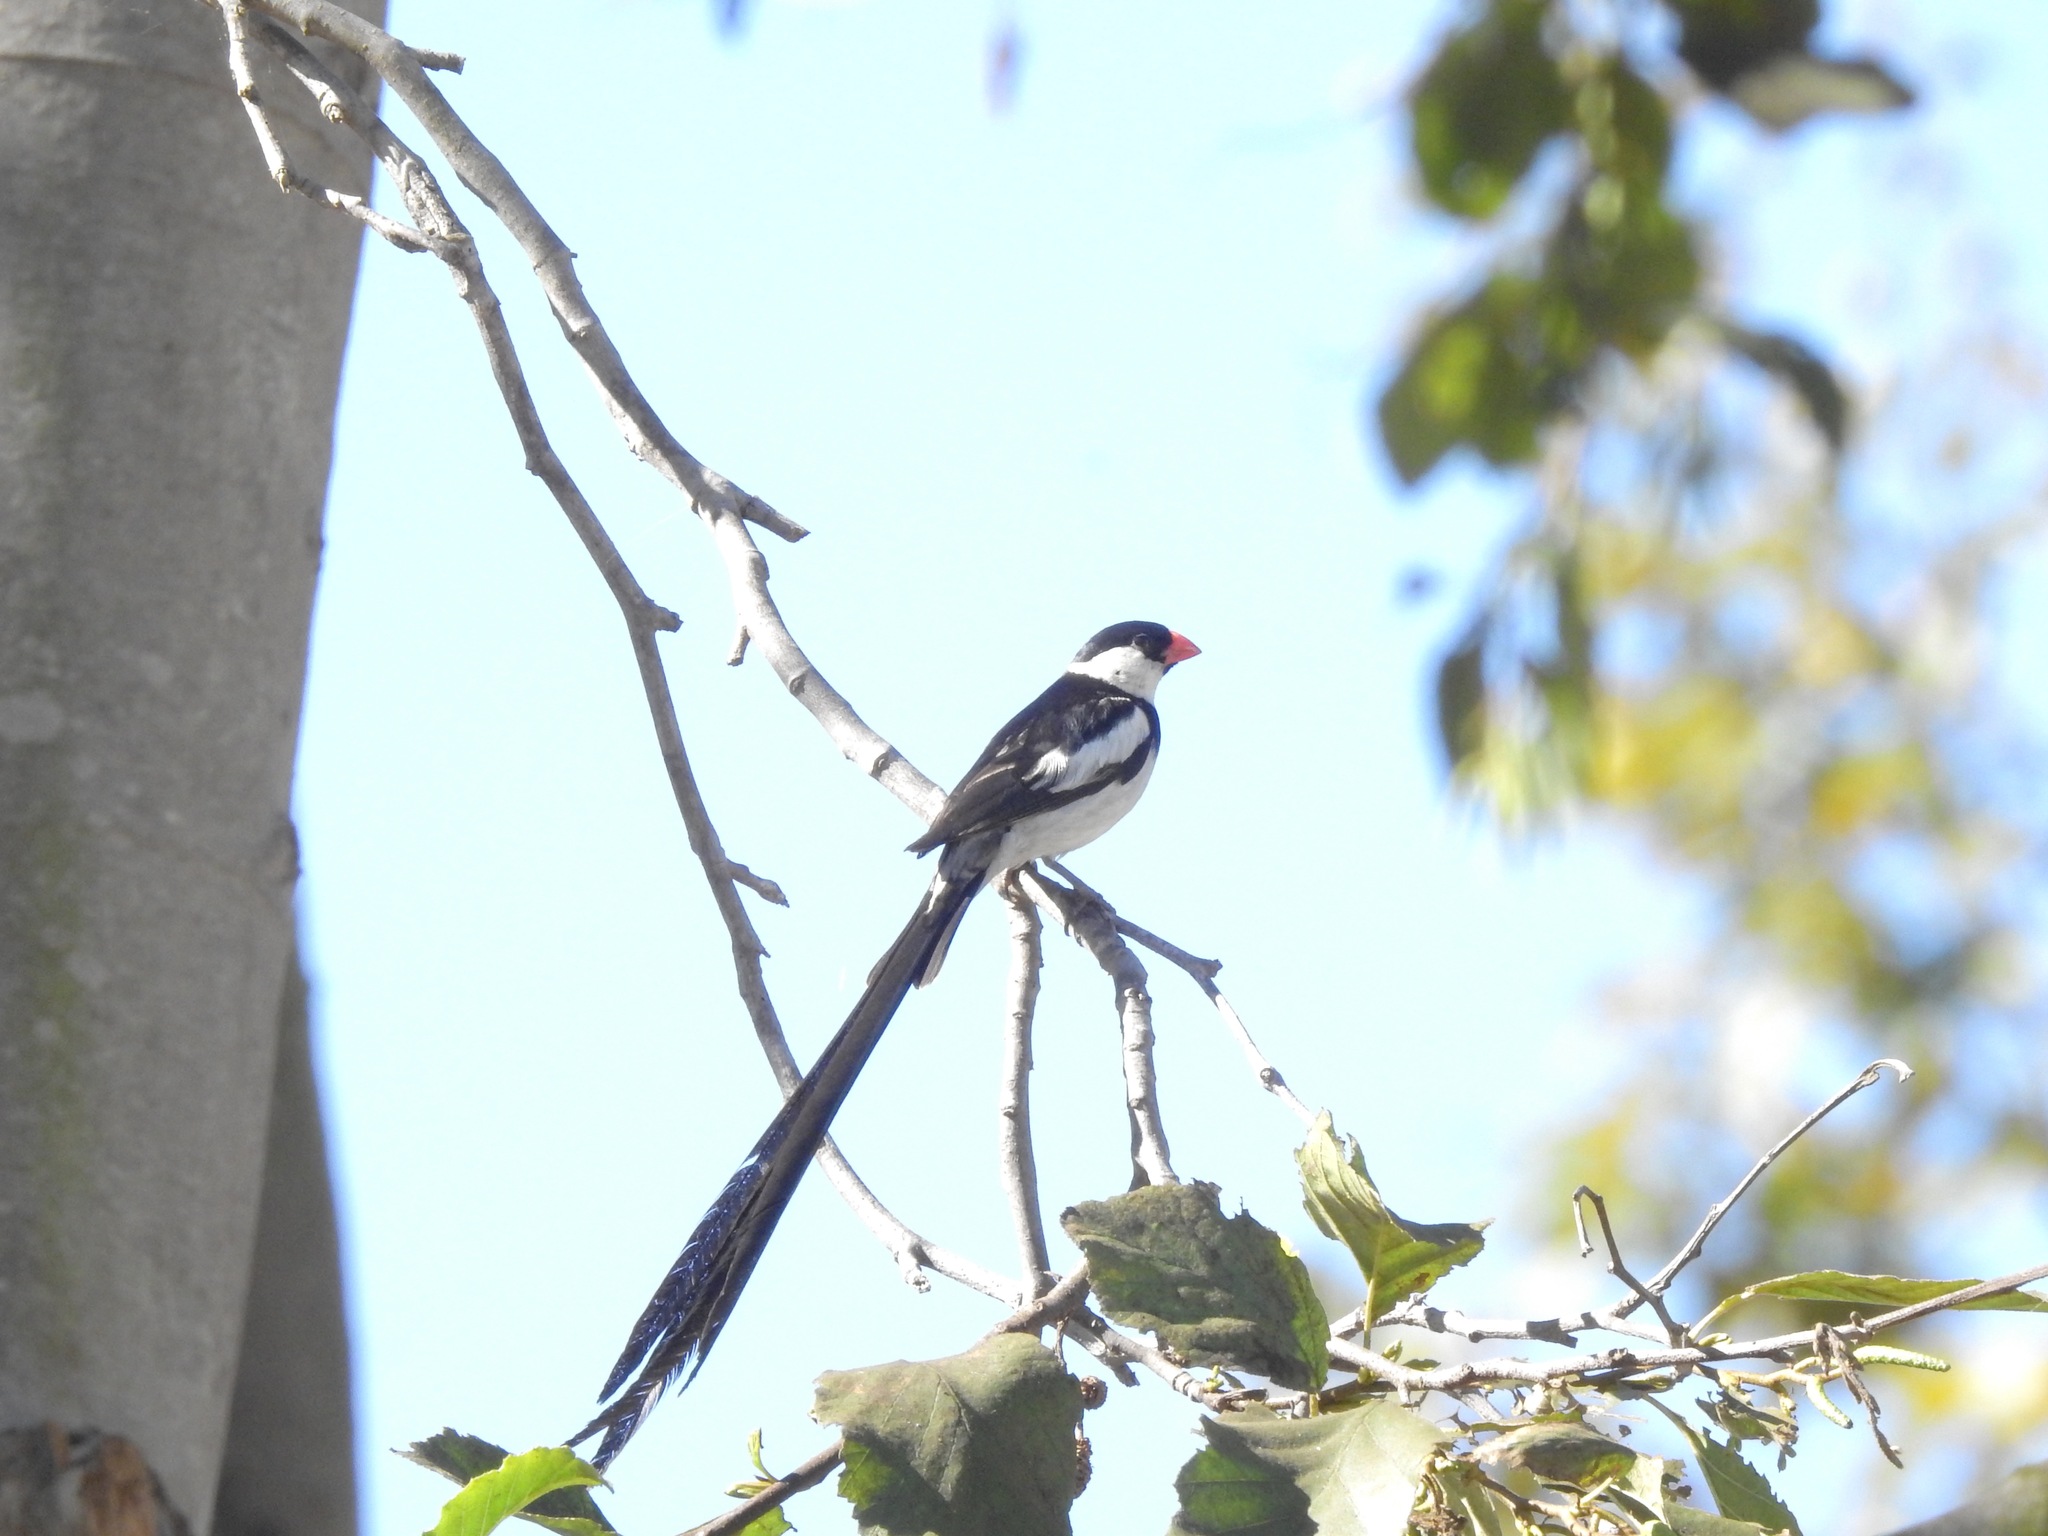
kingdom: Animalia
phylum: Chordata
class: Aves
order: Passeriformes
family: Viduidae
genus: Vidua
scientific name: Vidua macroura
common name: Pin-tailed whydah
